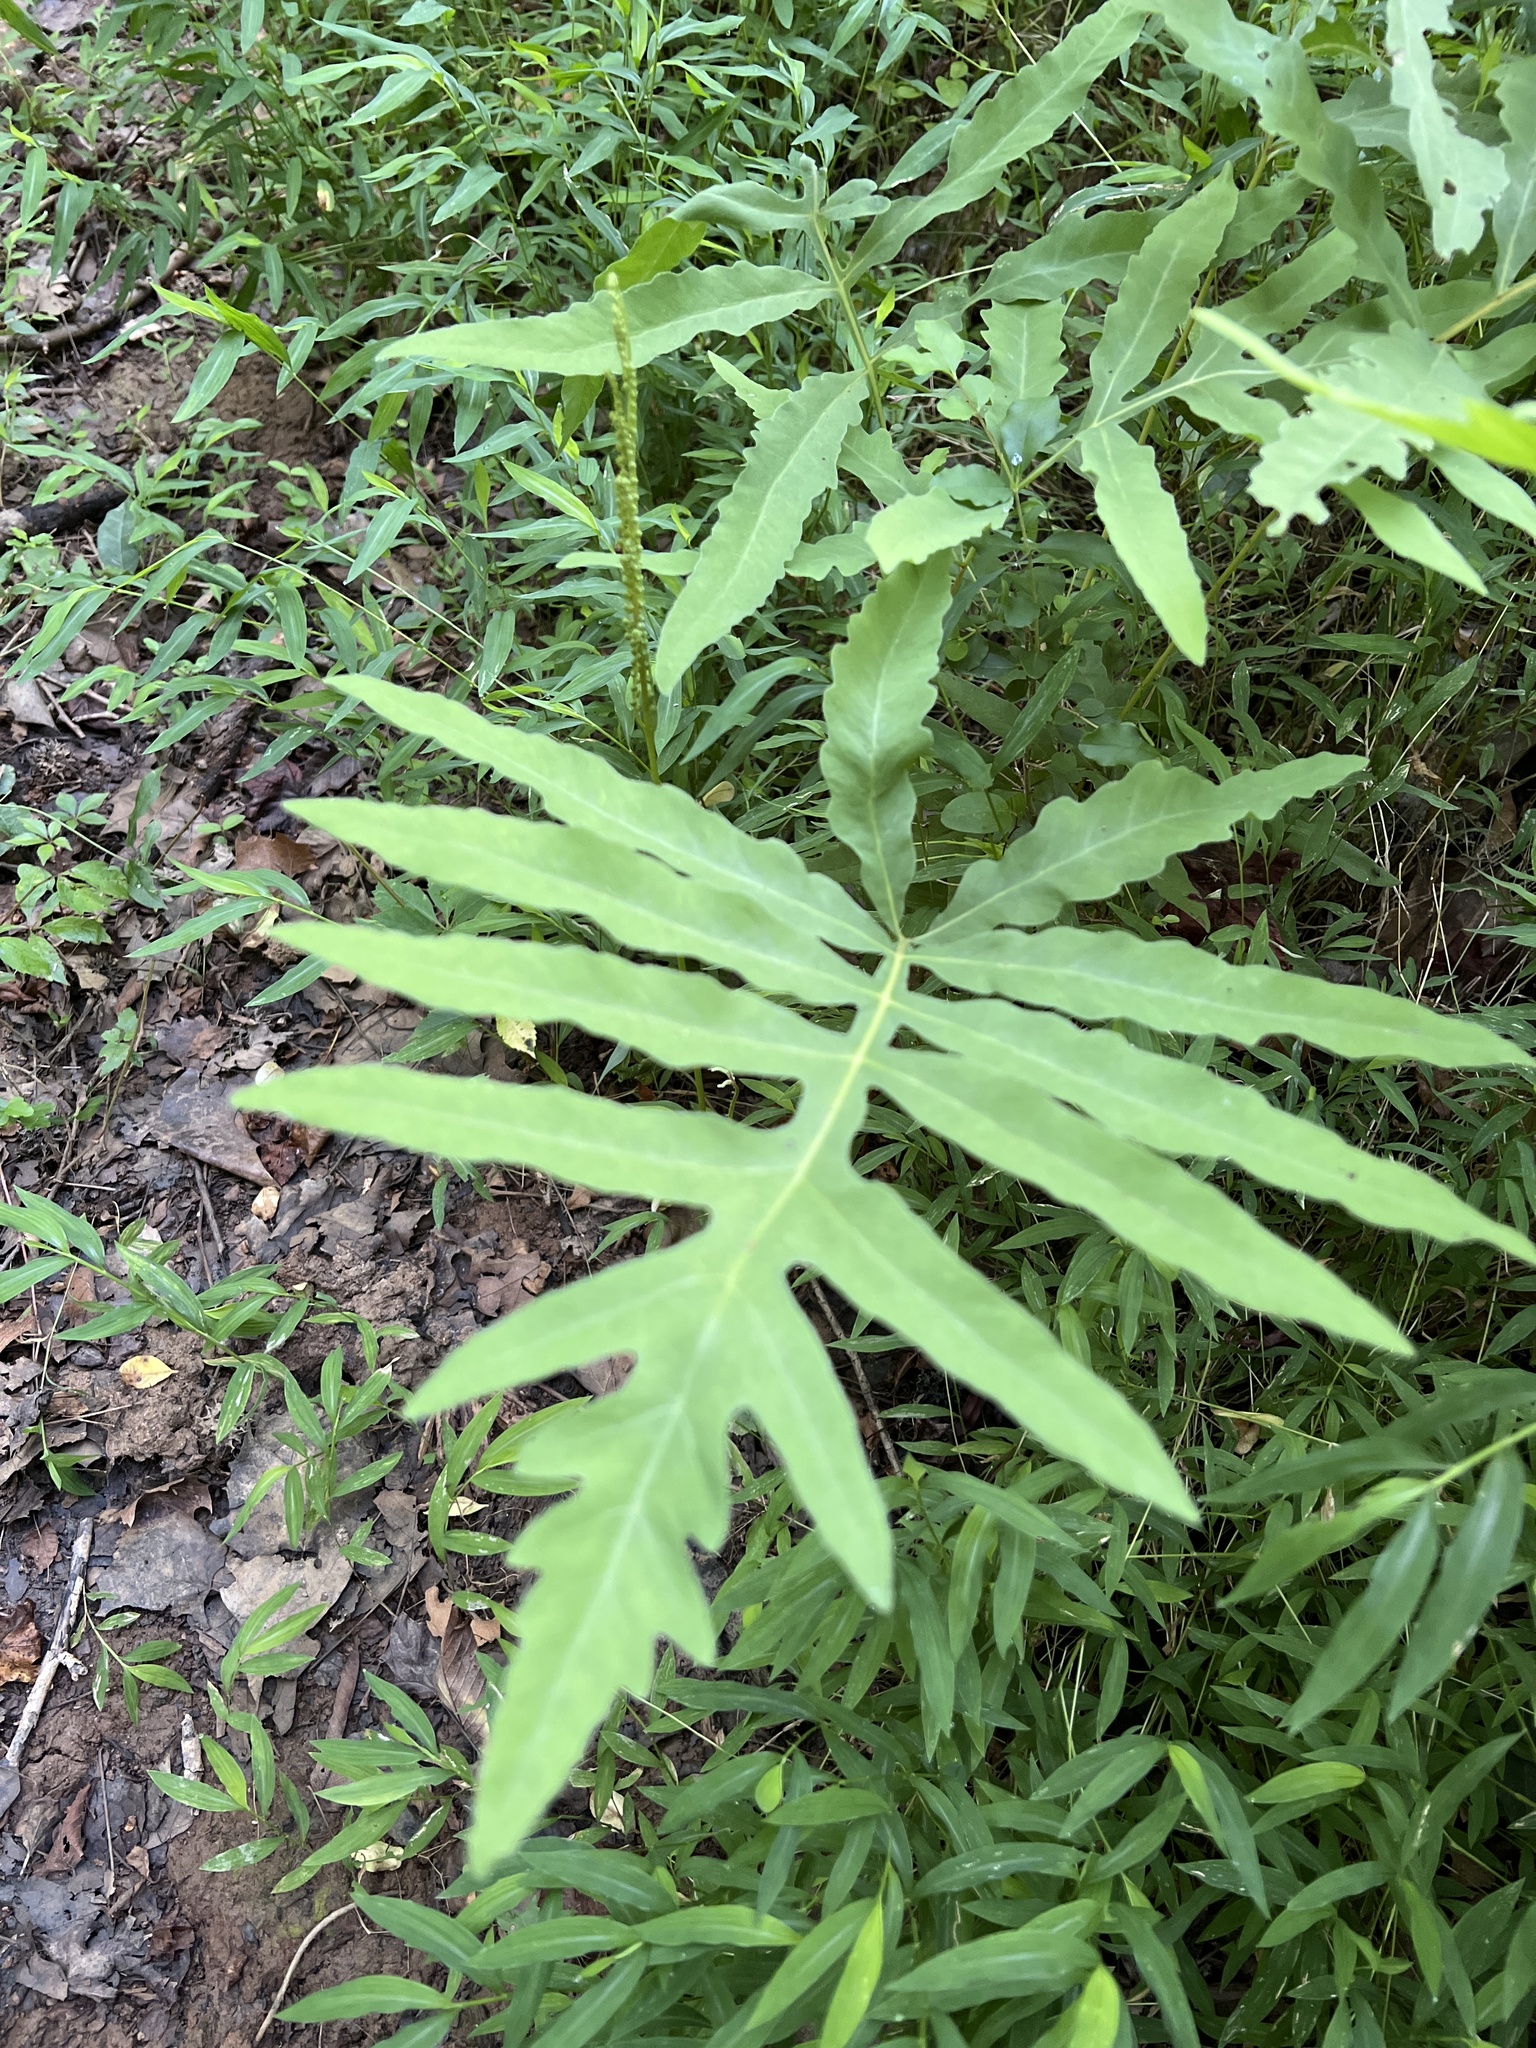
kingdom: Plantae
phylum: Tracheophyta
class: Polypodiopsida
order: Polypodiales
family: Onocleaceae
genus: Onoclea
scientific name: Onoclea sensibilis
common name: Sensitive fern
